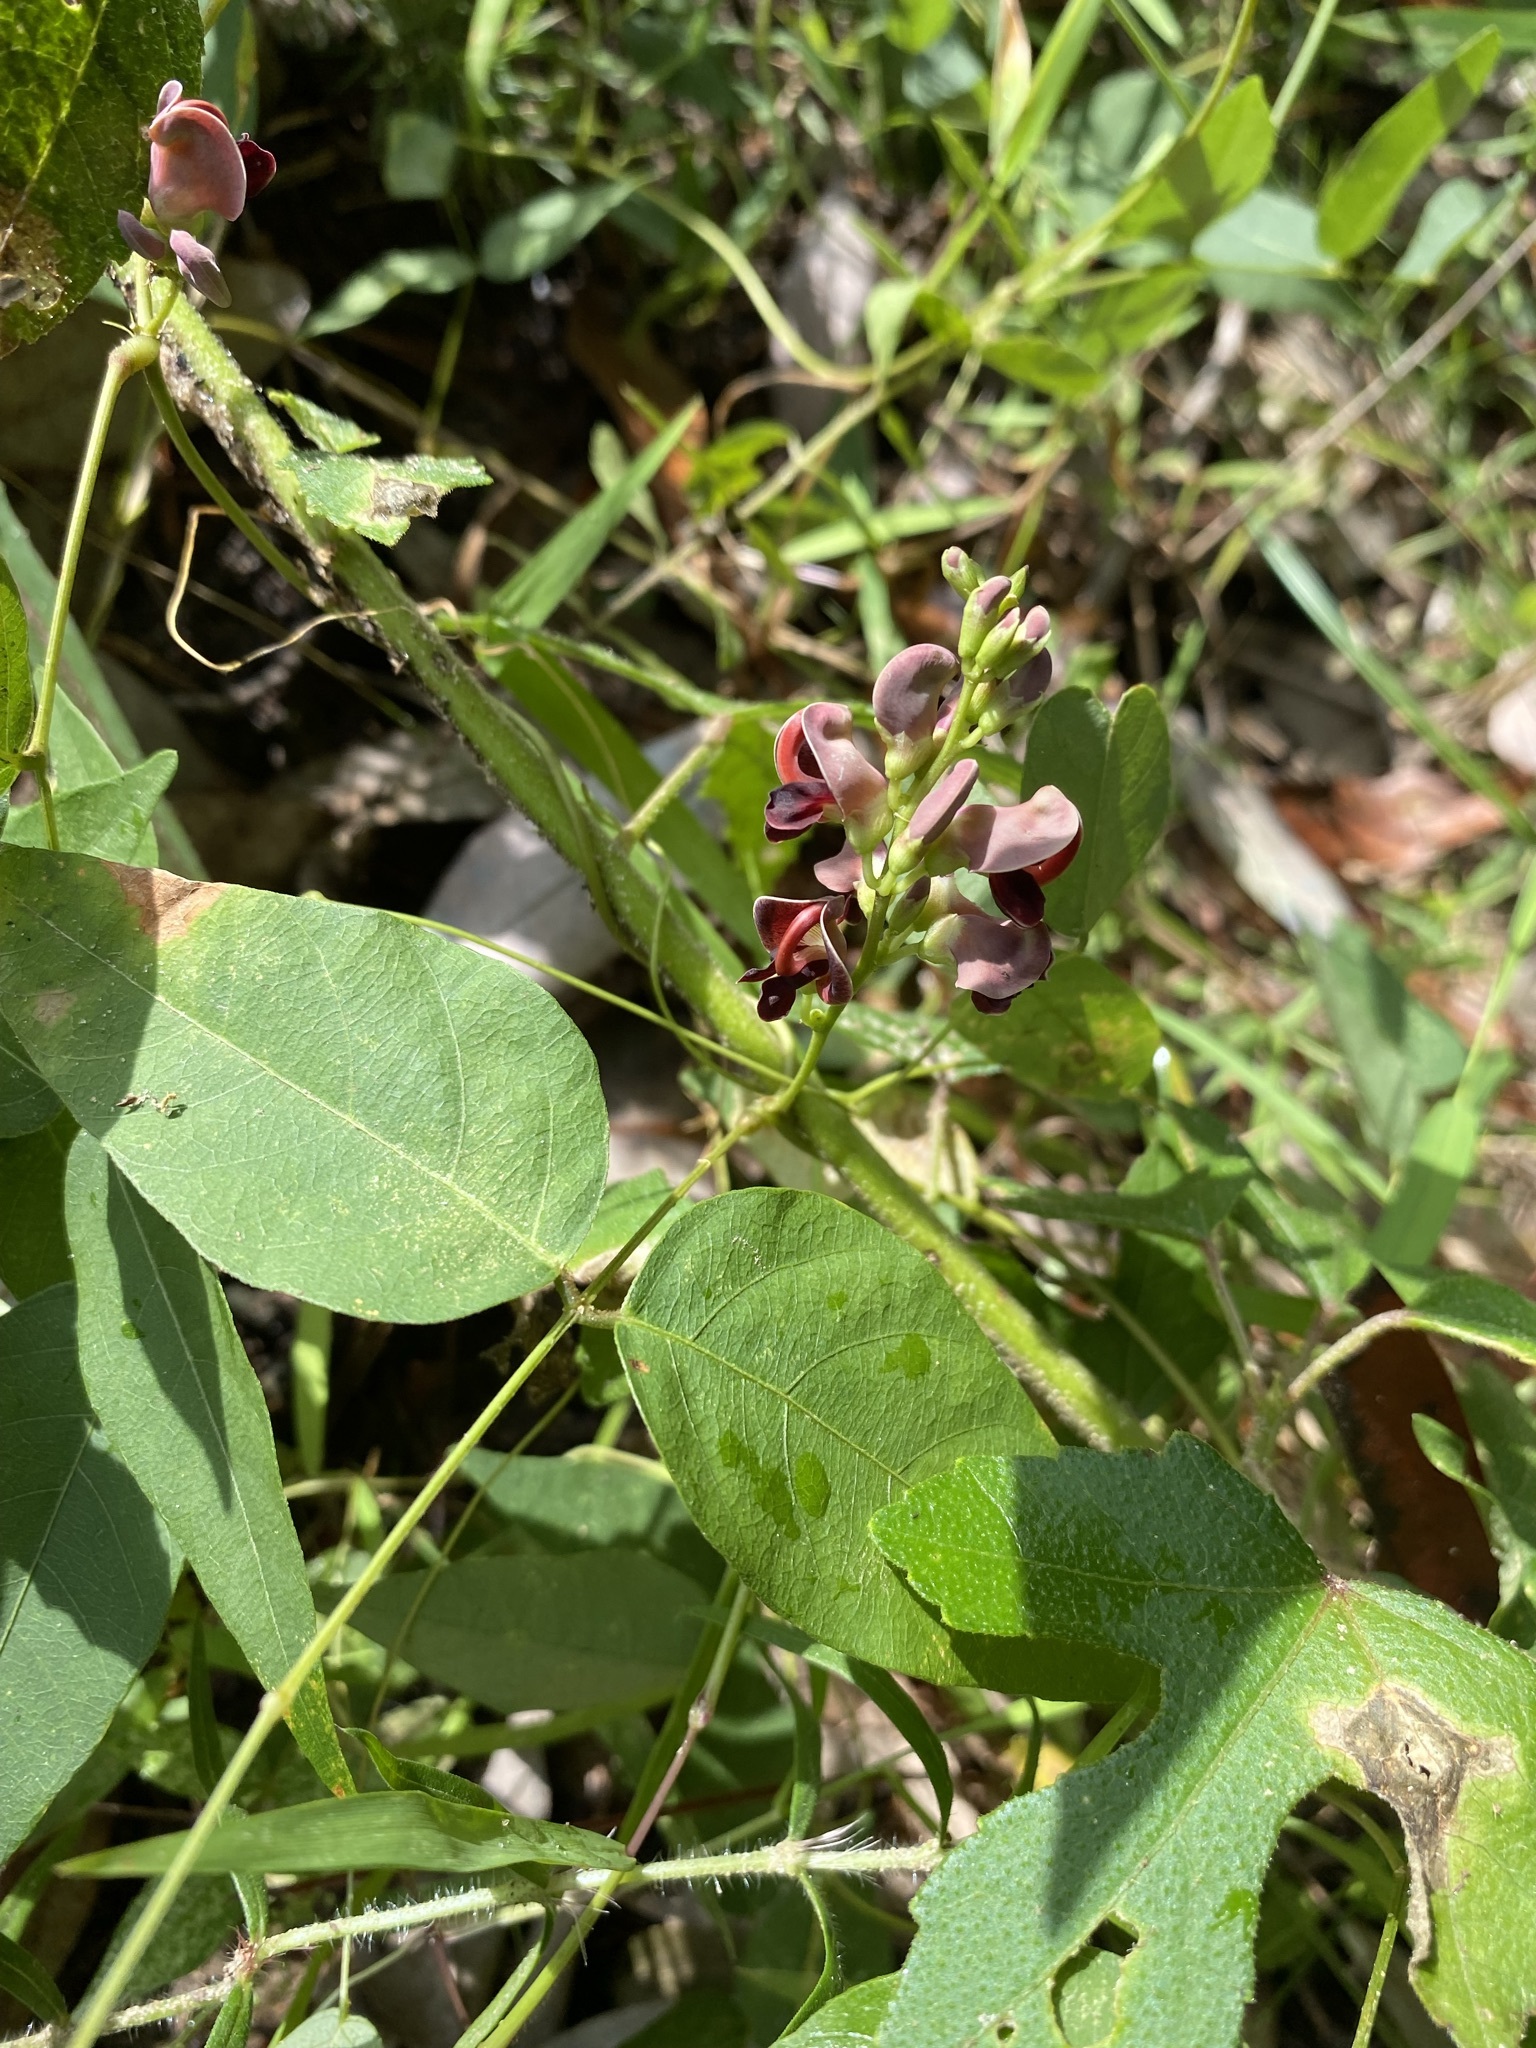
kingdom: Plantae
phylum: Tracheophyta
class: Magnoliopsida
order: Fabales
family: Fabaceae
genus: Apios
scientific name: Apios americana
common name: American potato-bean
